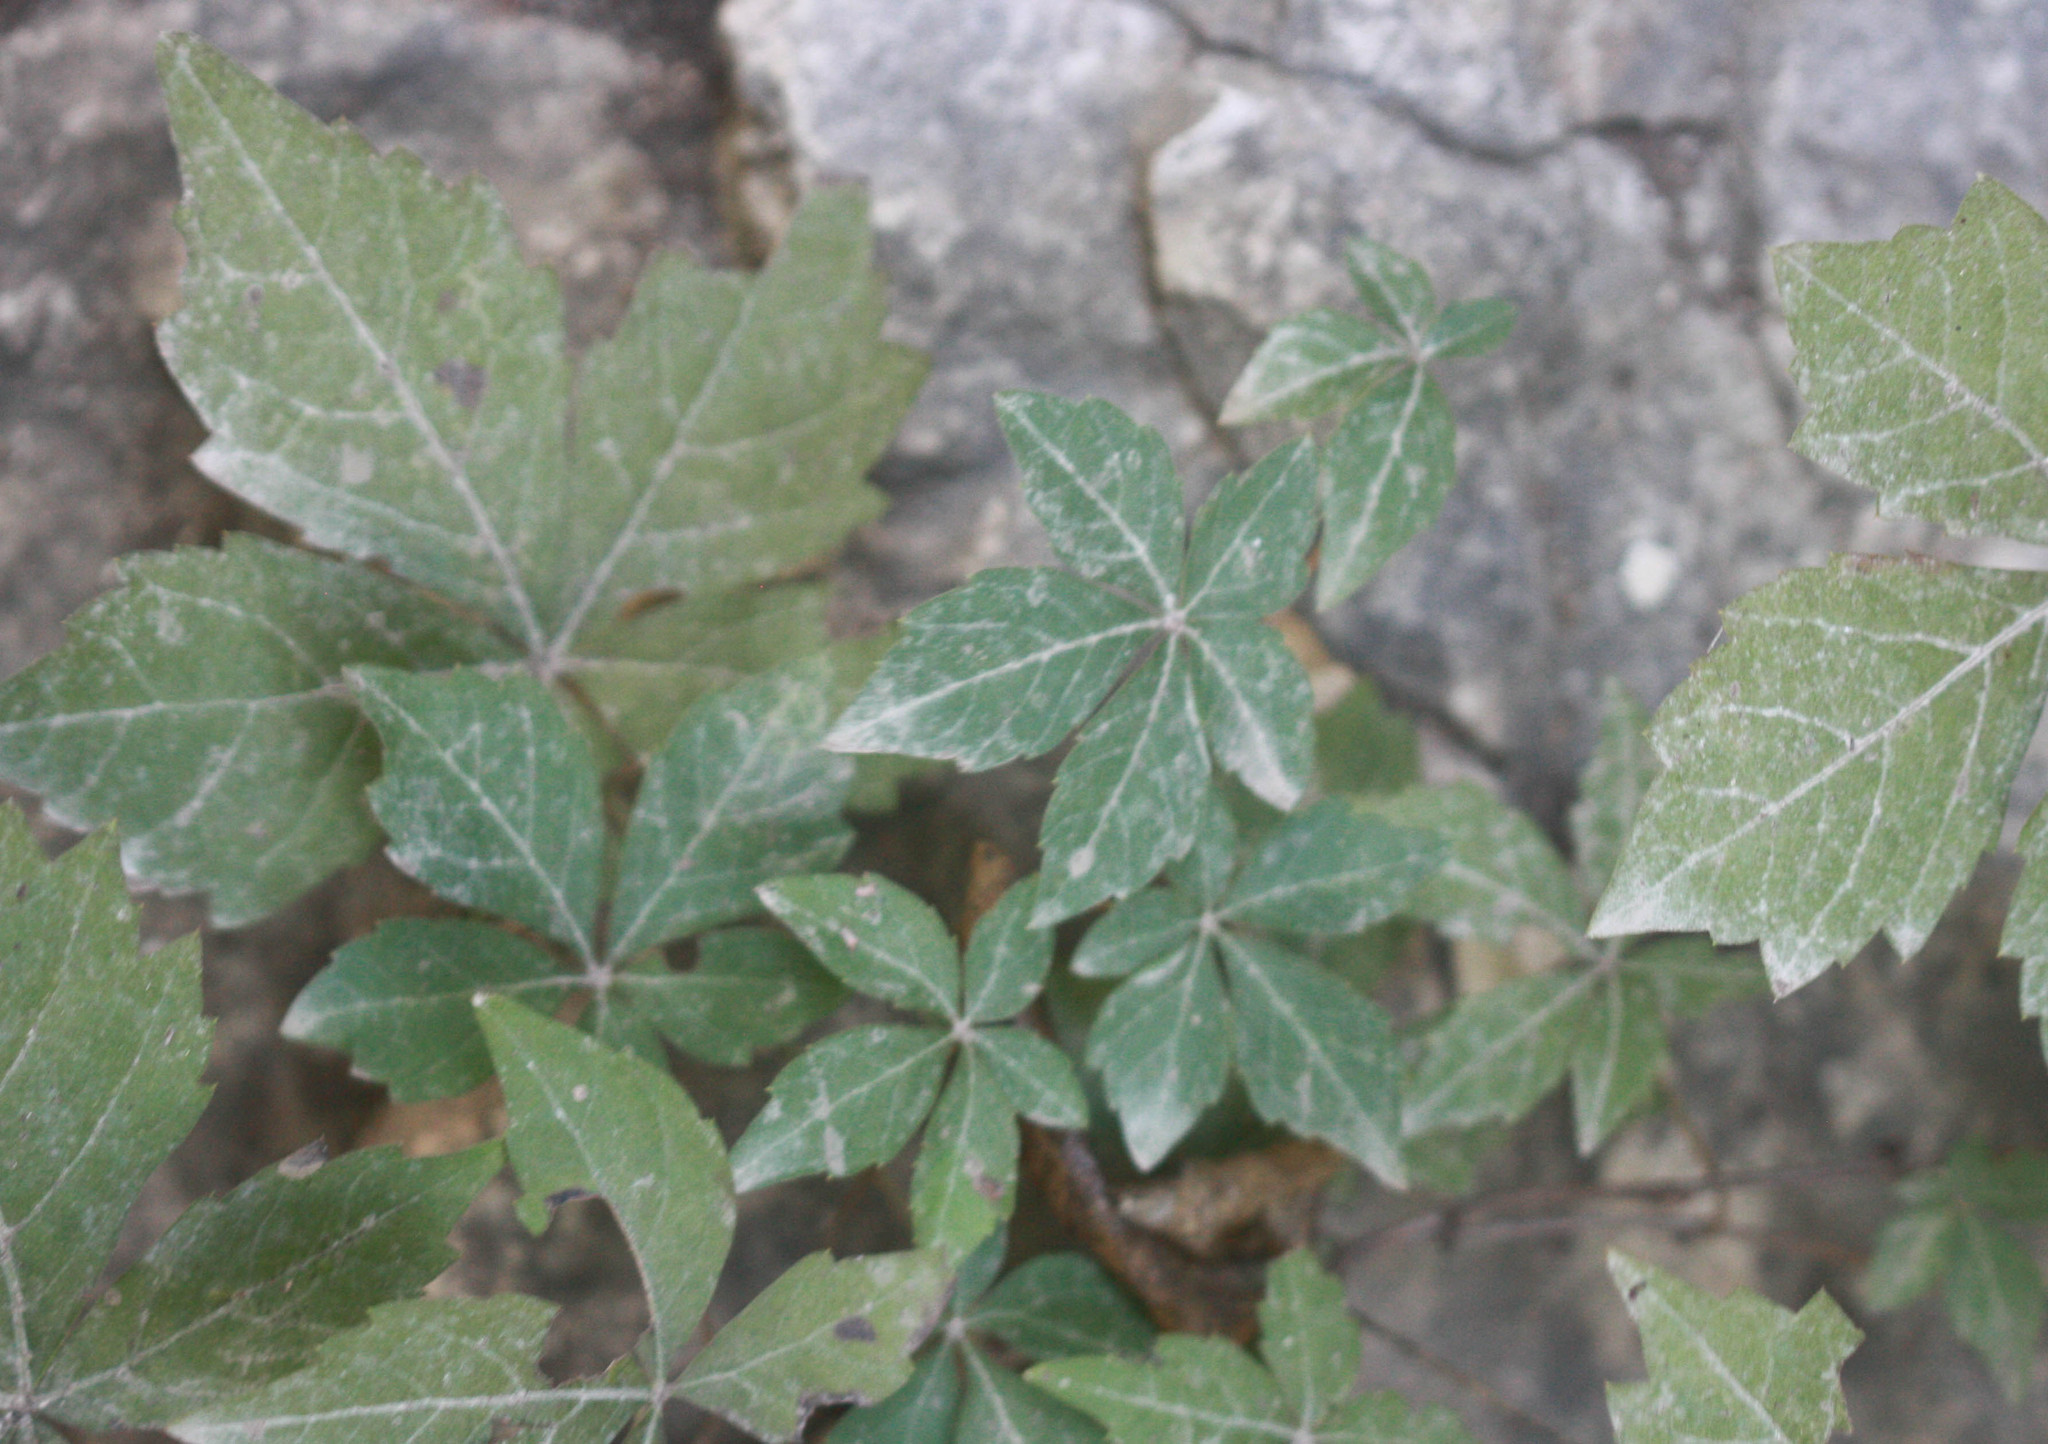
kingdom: Plantae
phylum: Tracheophyta
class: Magnoliopsida
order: Vitales
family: Vitaceae
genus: Parthenocissus
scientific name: Parthenocissus quinquefolia
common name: Virginia-creeper
